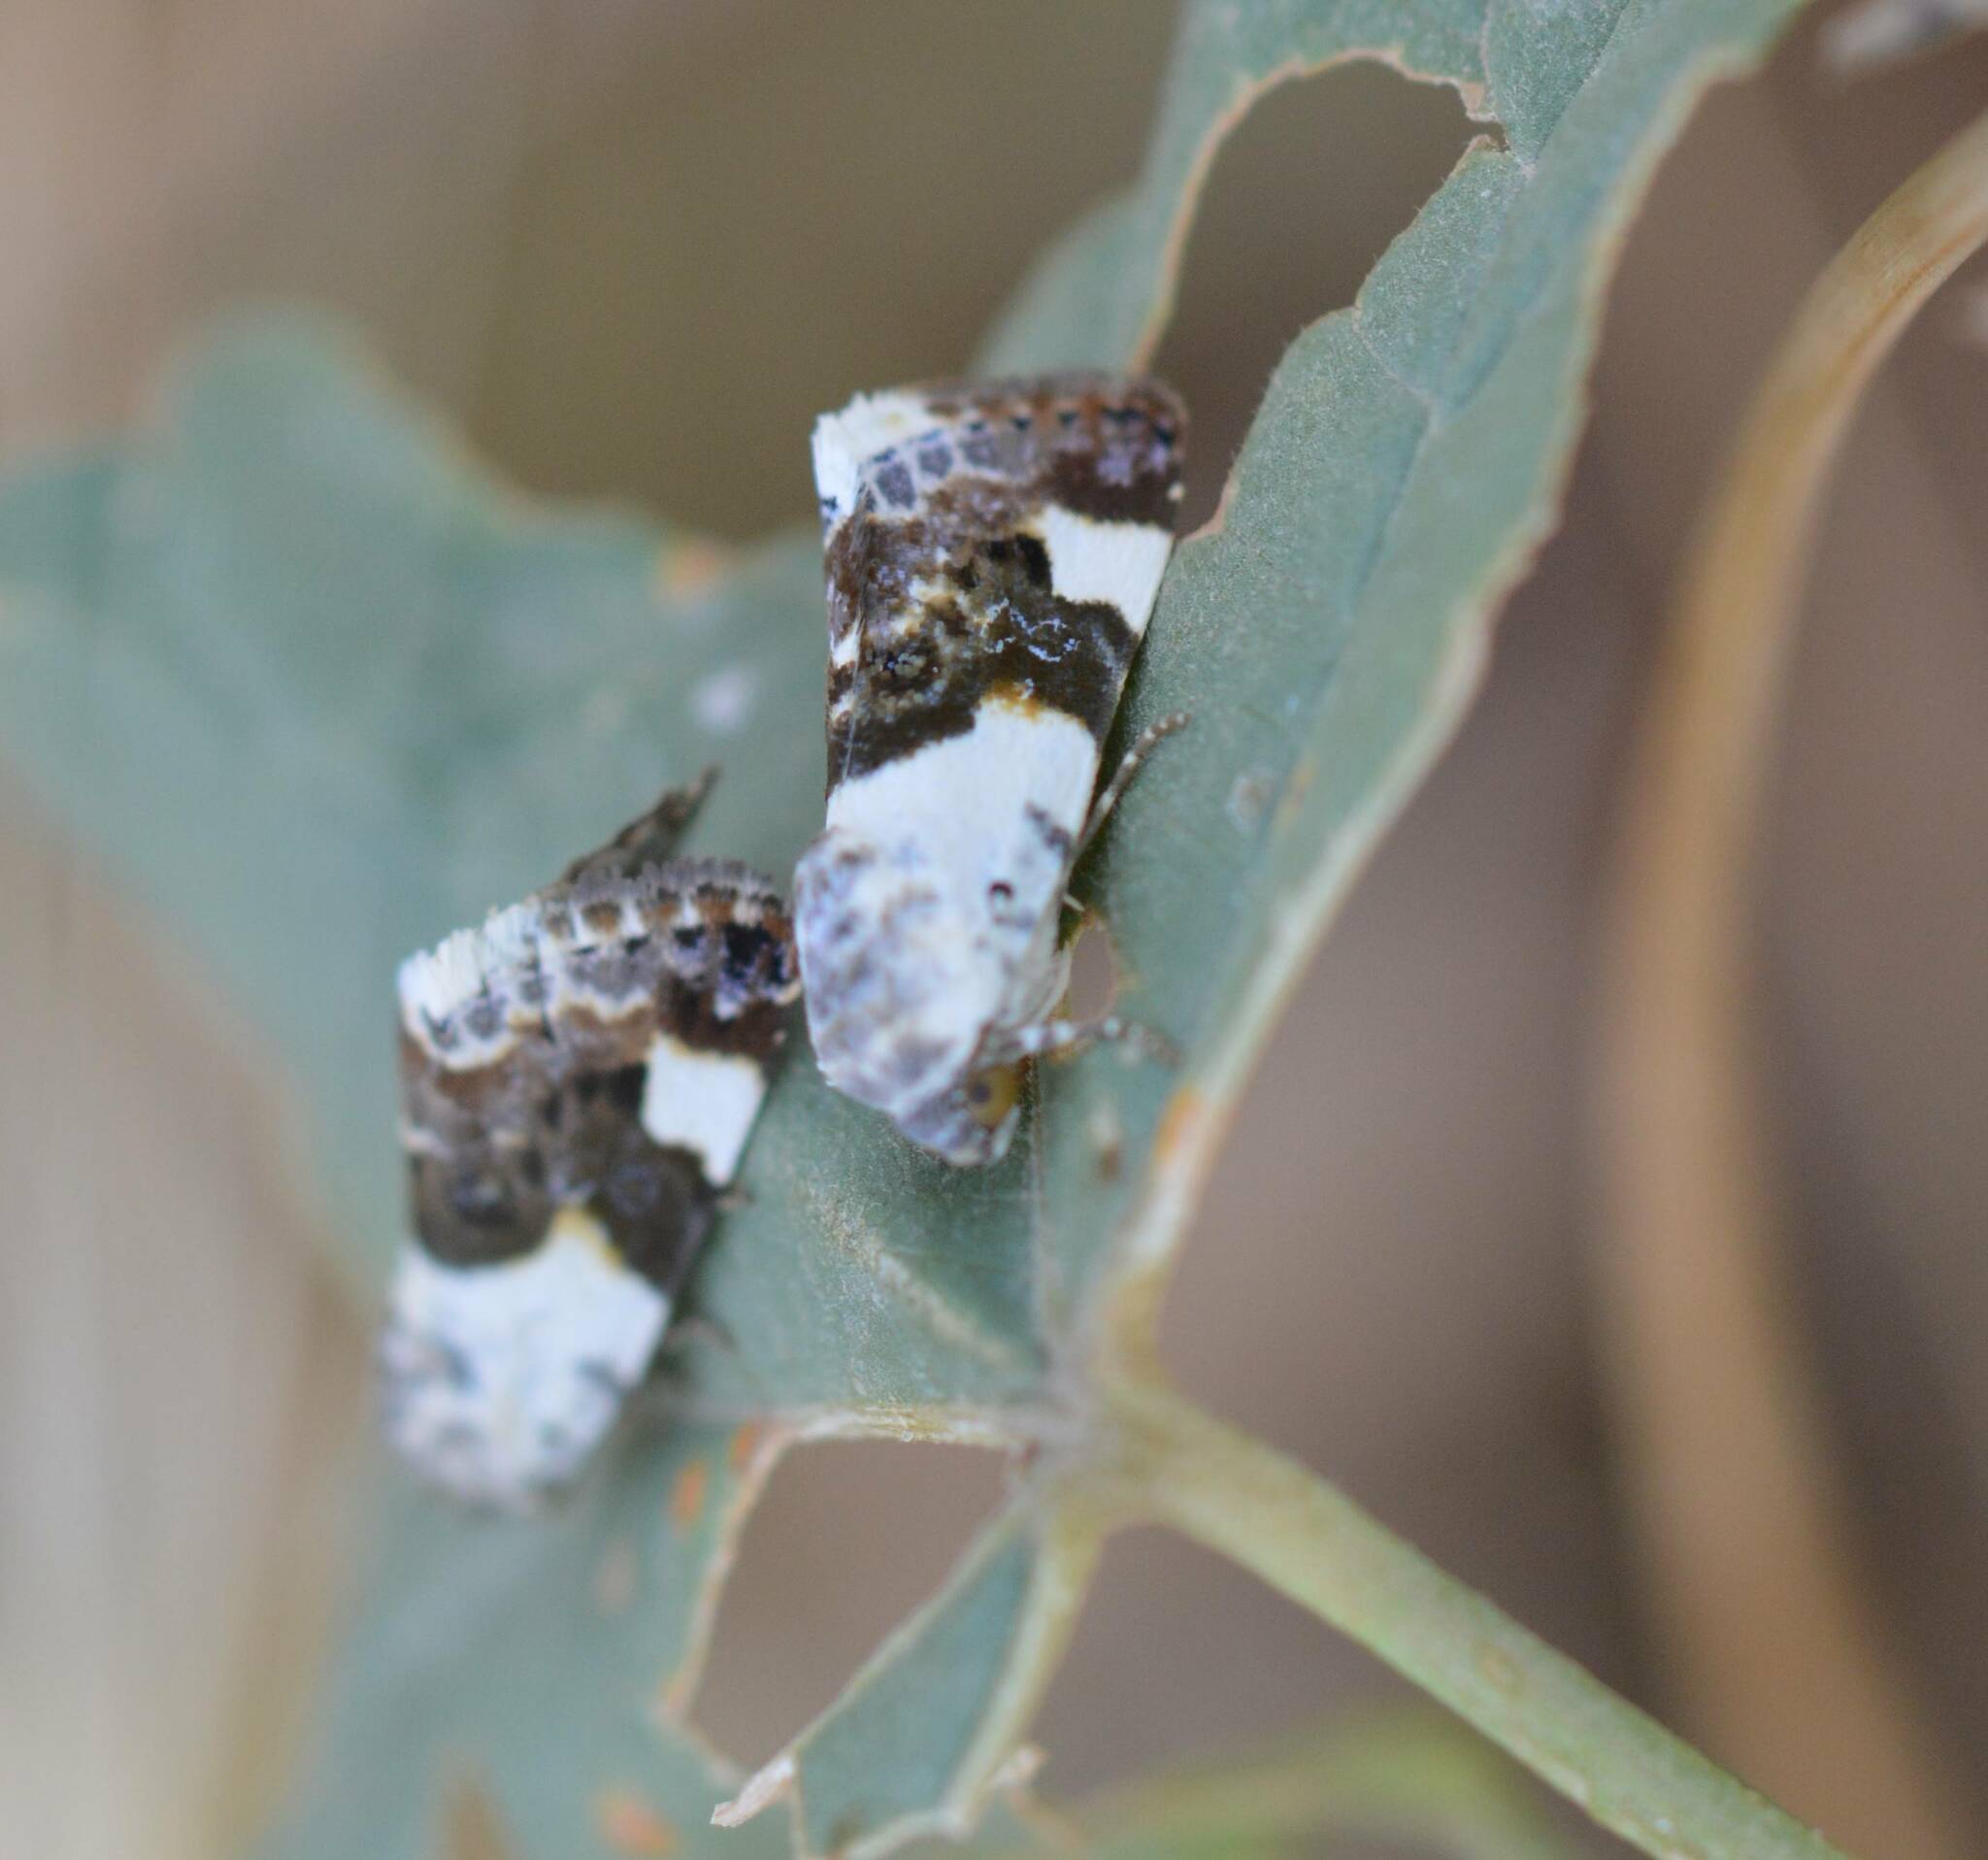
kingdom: Animalia
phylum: Arthropoda
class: Insecta
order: Lepidoptera
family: Noctuidae
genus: Acontia
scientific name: Acontia lucida
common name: Pale shoulder
